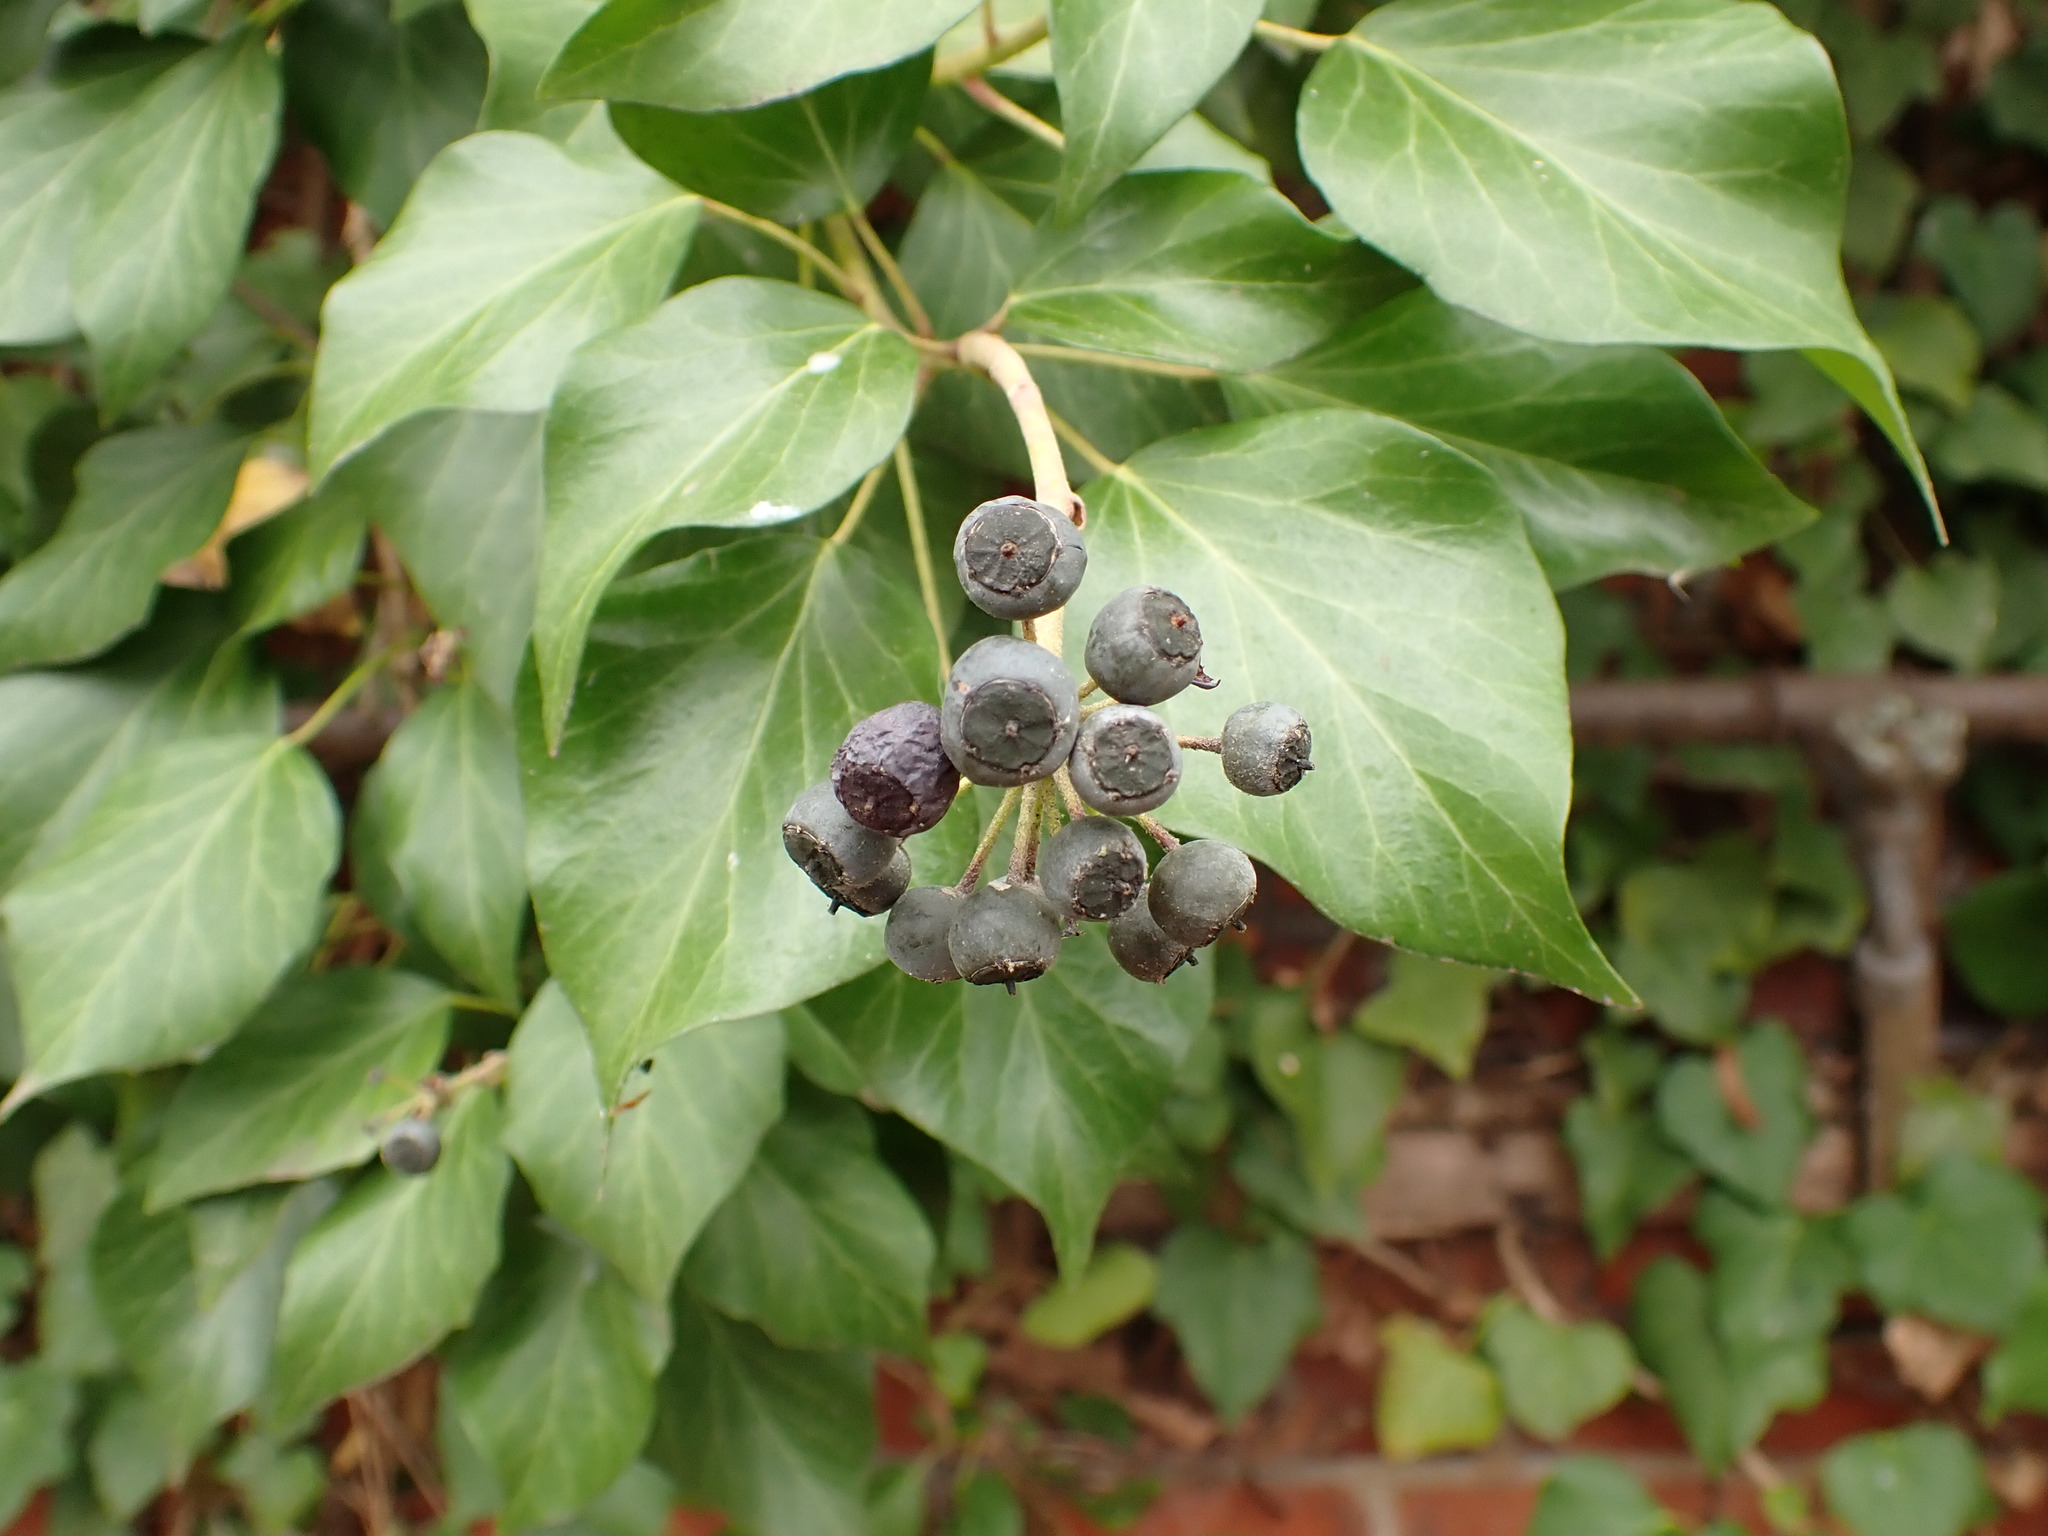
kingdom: Plantae
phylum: Tracheophyta
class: Magnoliopsida
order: Apiales
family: Araliaceae
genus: Hedera
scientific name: Hedera helix
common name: Ivy
